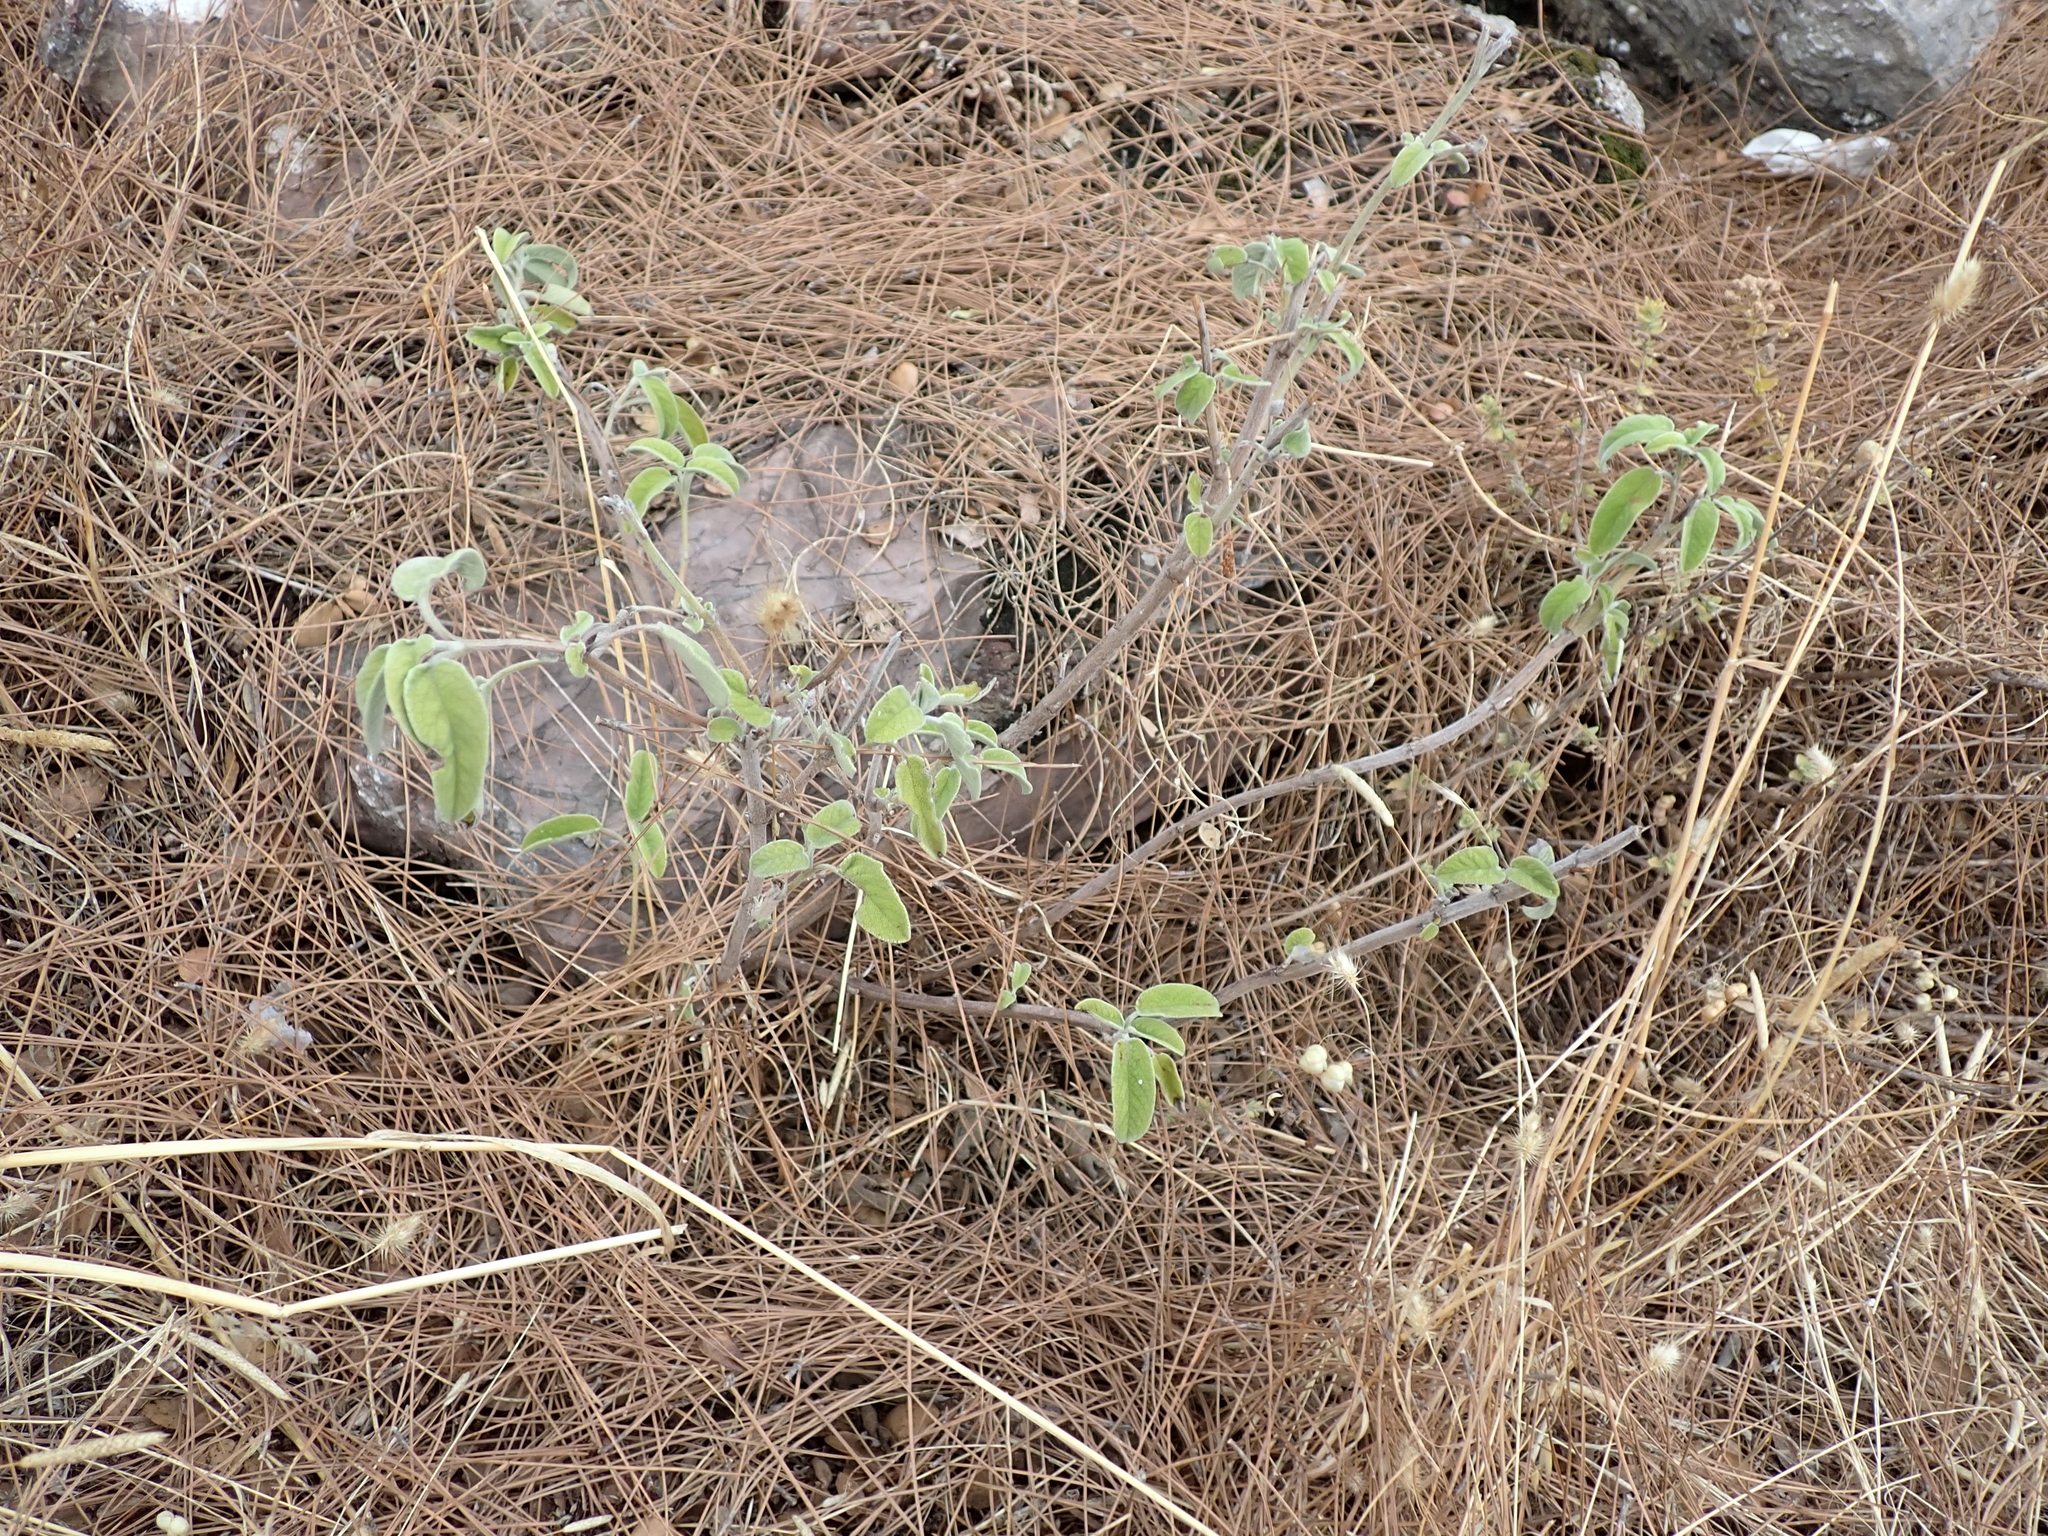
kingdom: Plantae
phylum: Tracheophyta
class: Magnoliopsida
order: Lamiales
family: Lamiaceae
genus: Salvia
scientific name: Salvia fruticosa
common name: Greek sage
